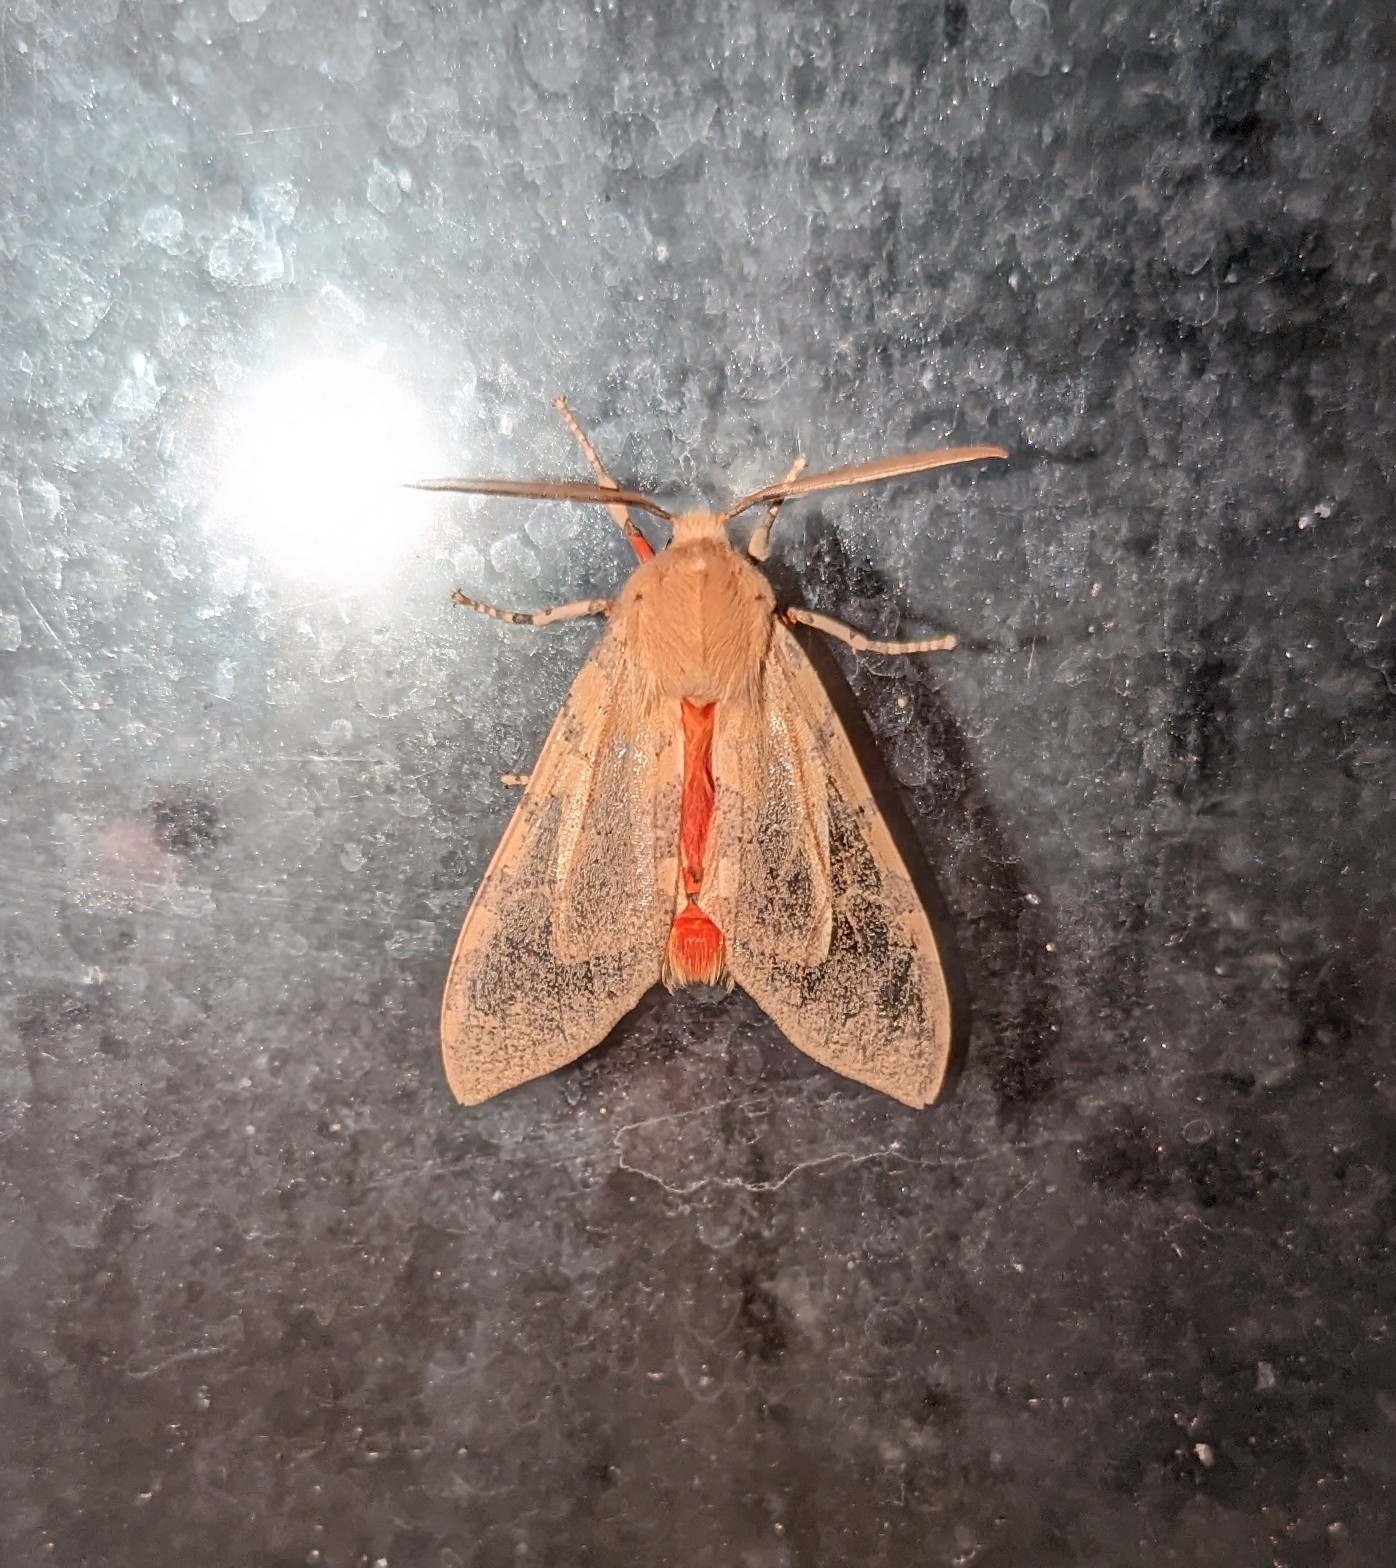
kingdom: Animalia
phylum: Arthropoda
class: Insecta
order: Lepidoptera
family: Erebidae
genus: Hemihyalea
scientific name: Hemihyalea edwardsii
